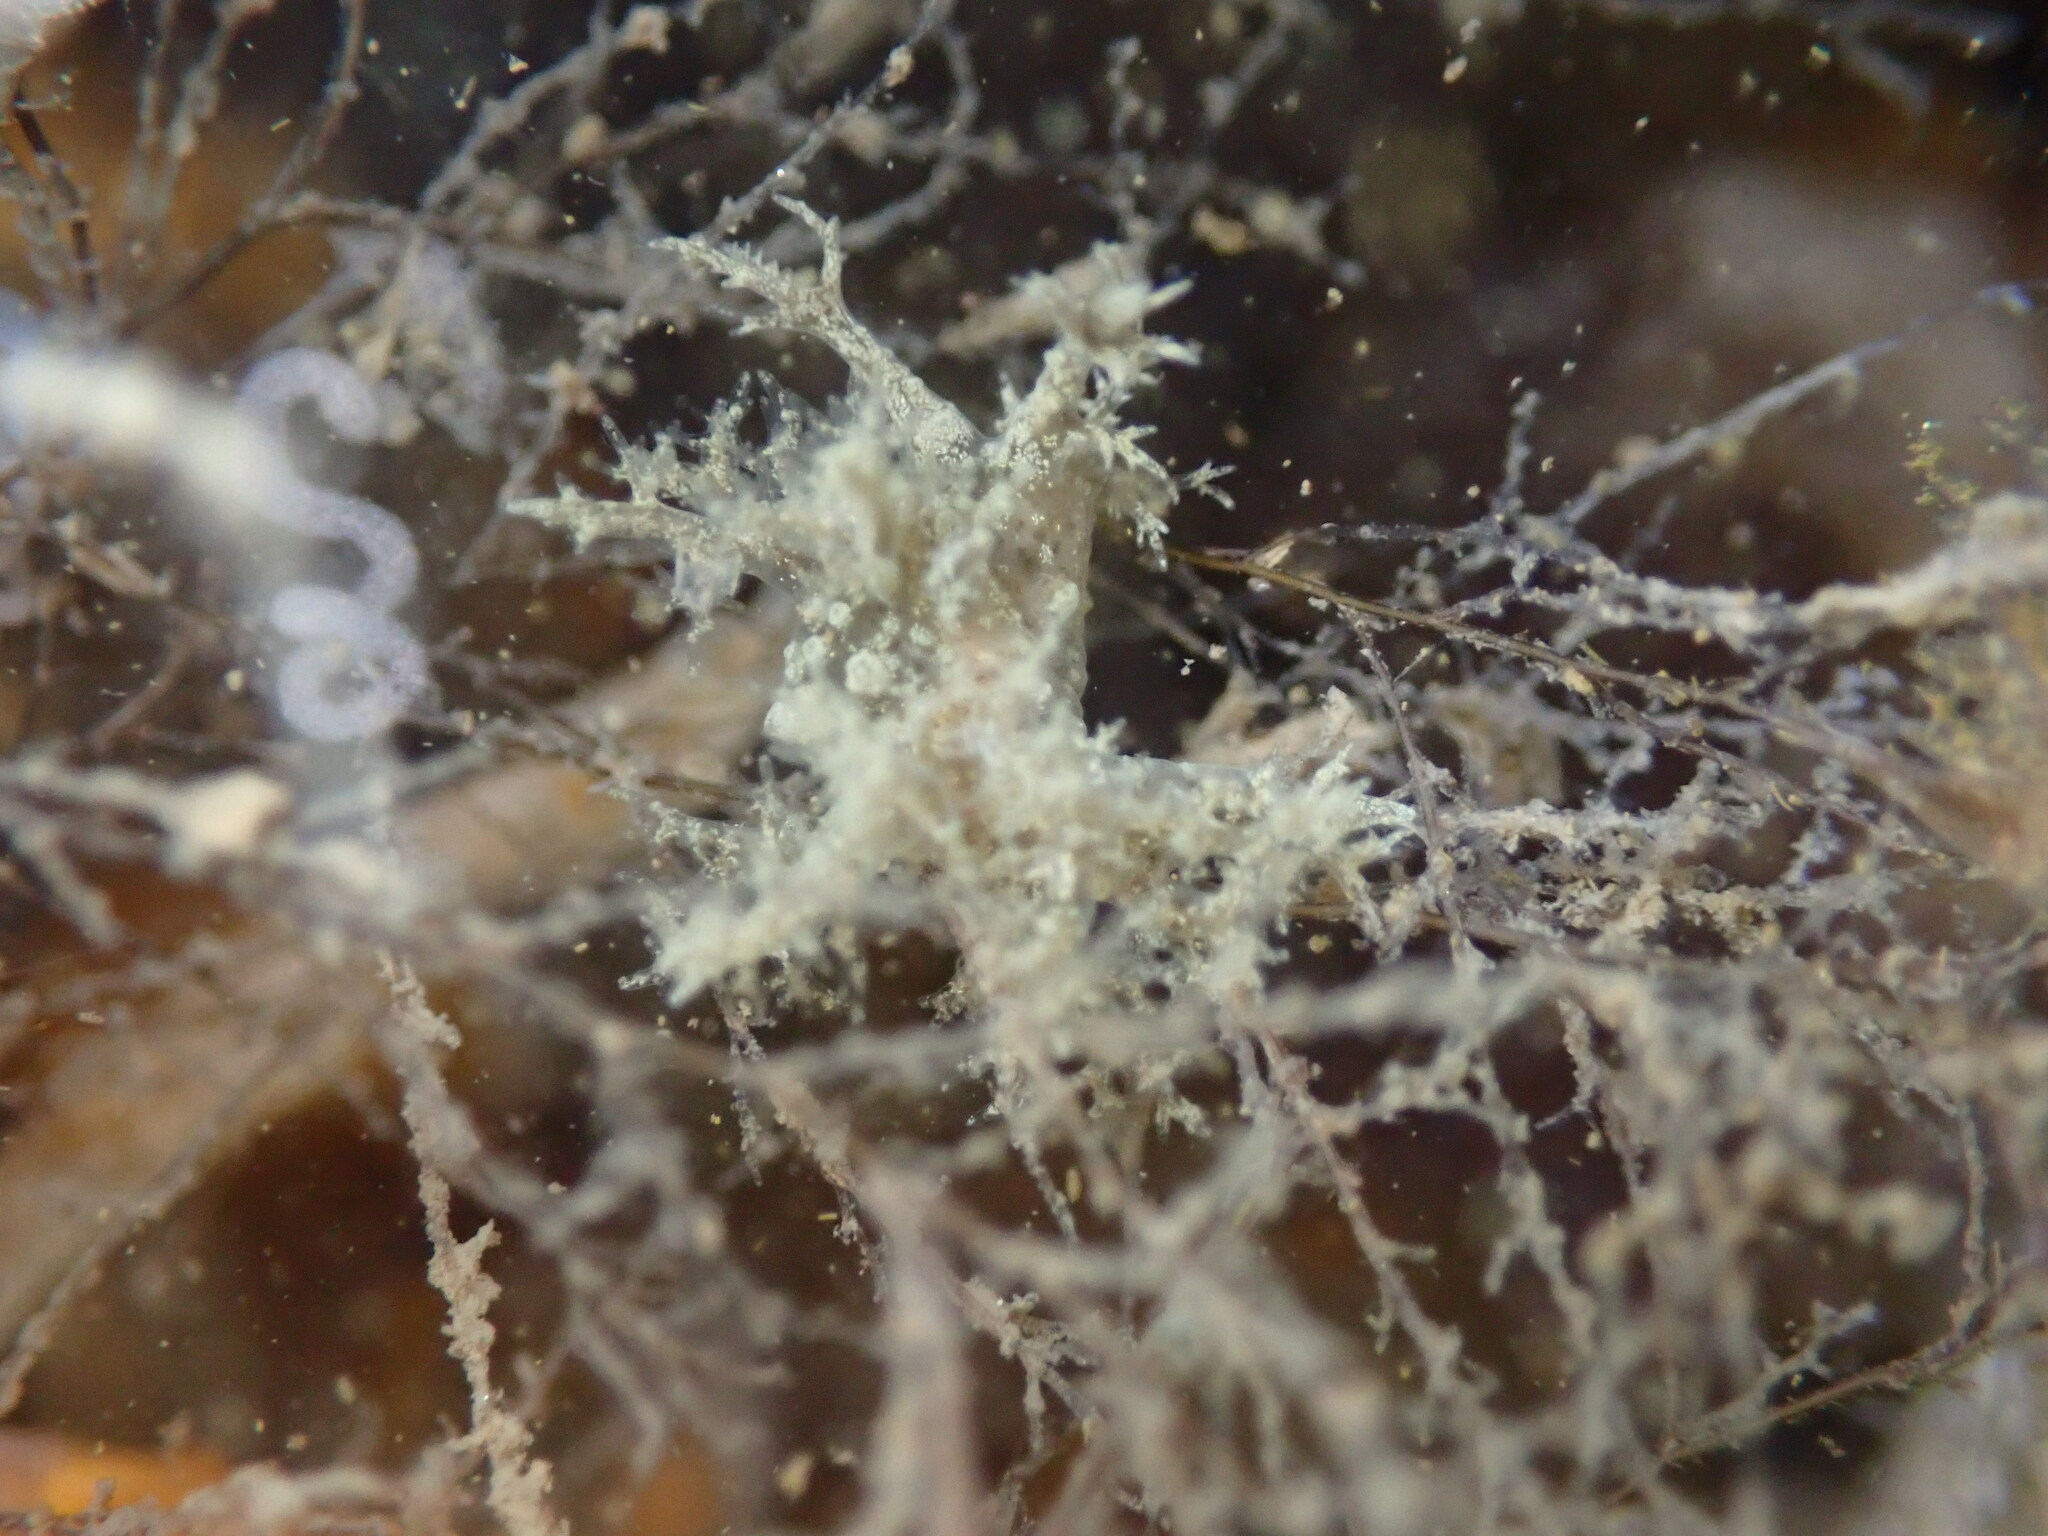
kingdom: Animalia
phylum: Mollusca
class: Gastropoda
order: Nudibranchia
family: Dendronotidae
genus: Dendronotus
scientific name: Dendronotus venustus
